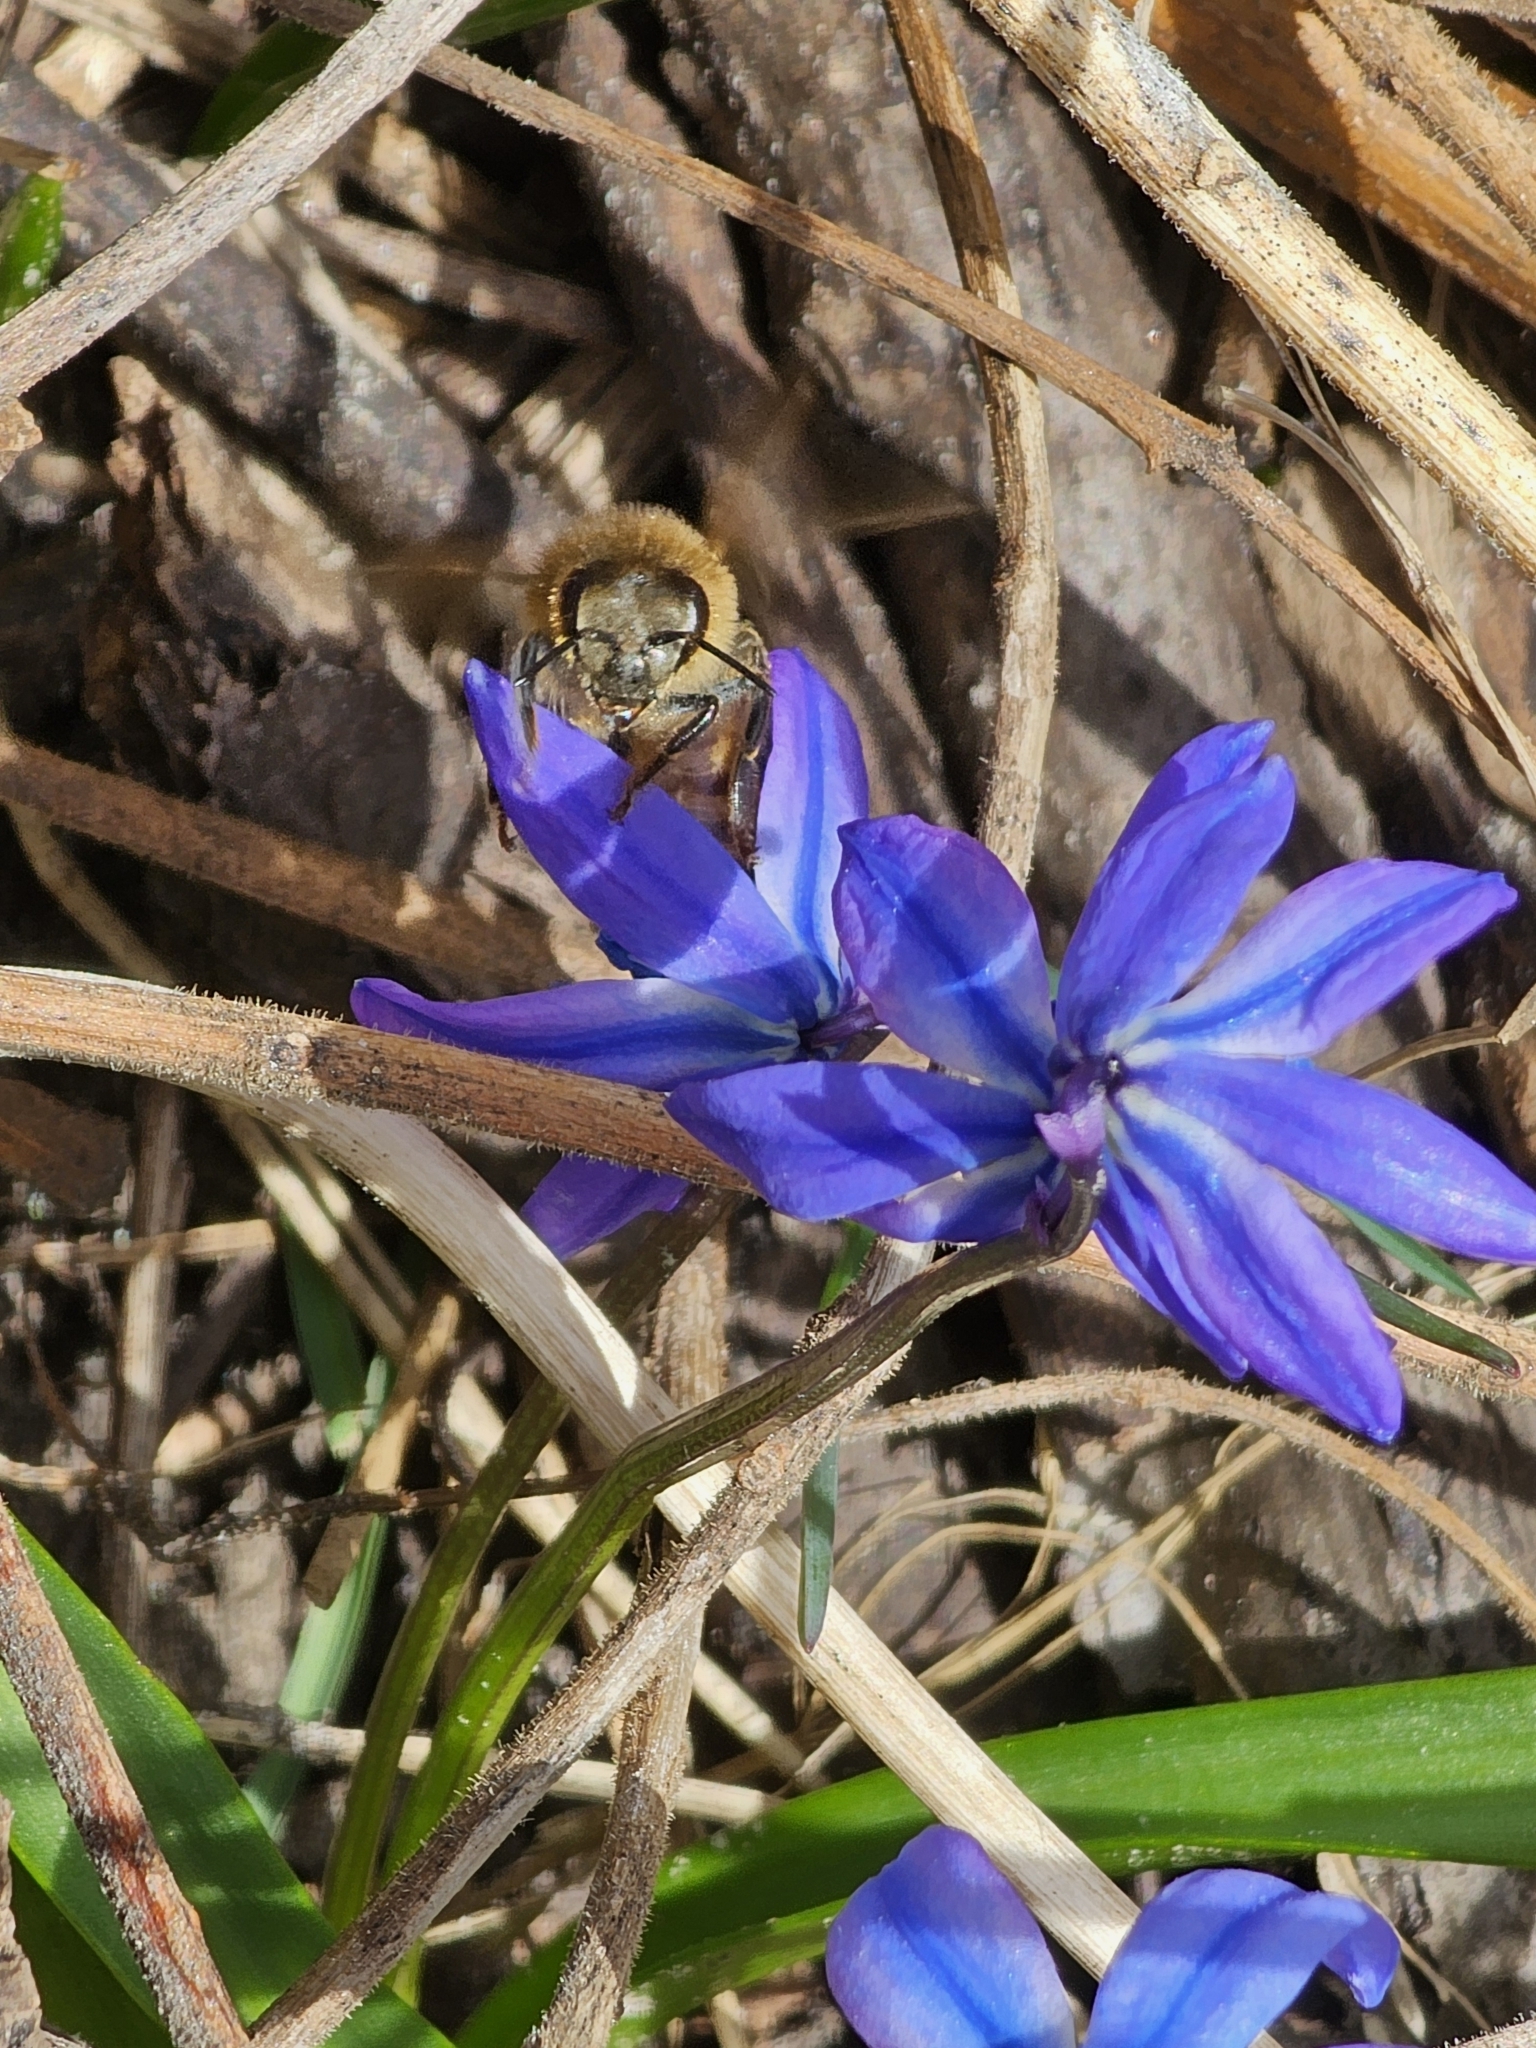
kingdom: Animalia
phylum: Arthropoda
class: Insecta
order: Hymenoptera
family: Apidae
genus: Apis
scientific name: Apis mellifera
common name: Honey bee
